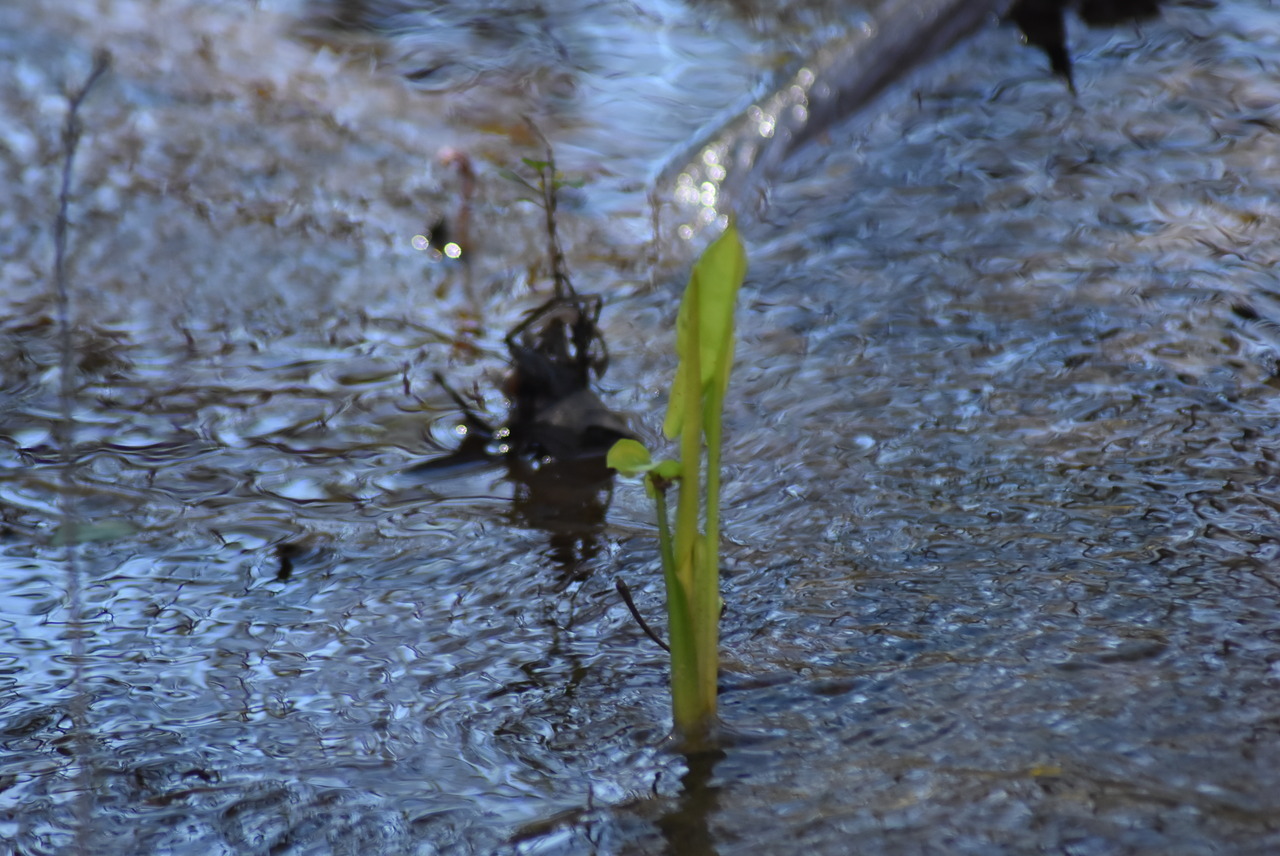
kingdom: Plantae
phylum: Tracheophyta
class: Liliopsida
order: Alismatales
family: Araceae
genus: Peltandra
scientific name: Peltandra virginica
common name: Arrow arum
